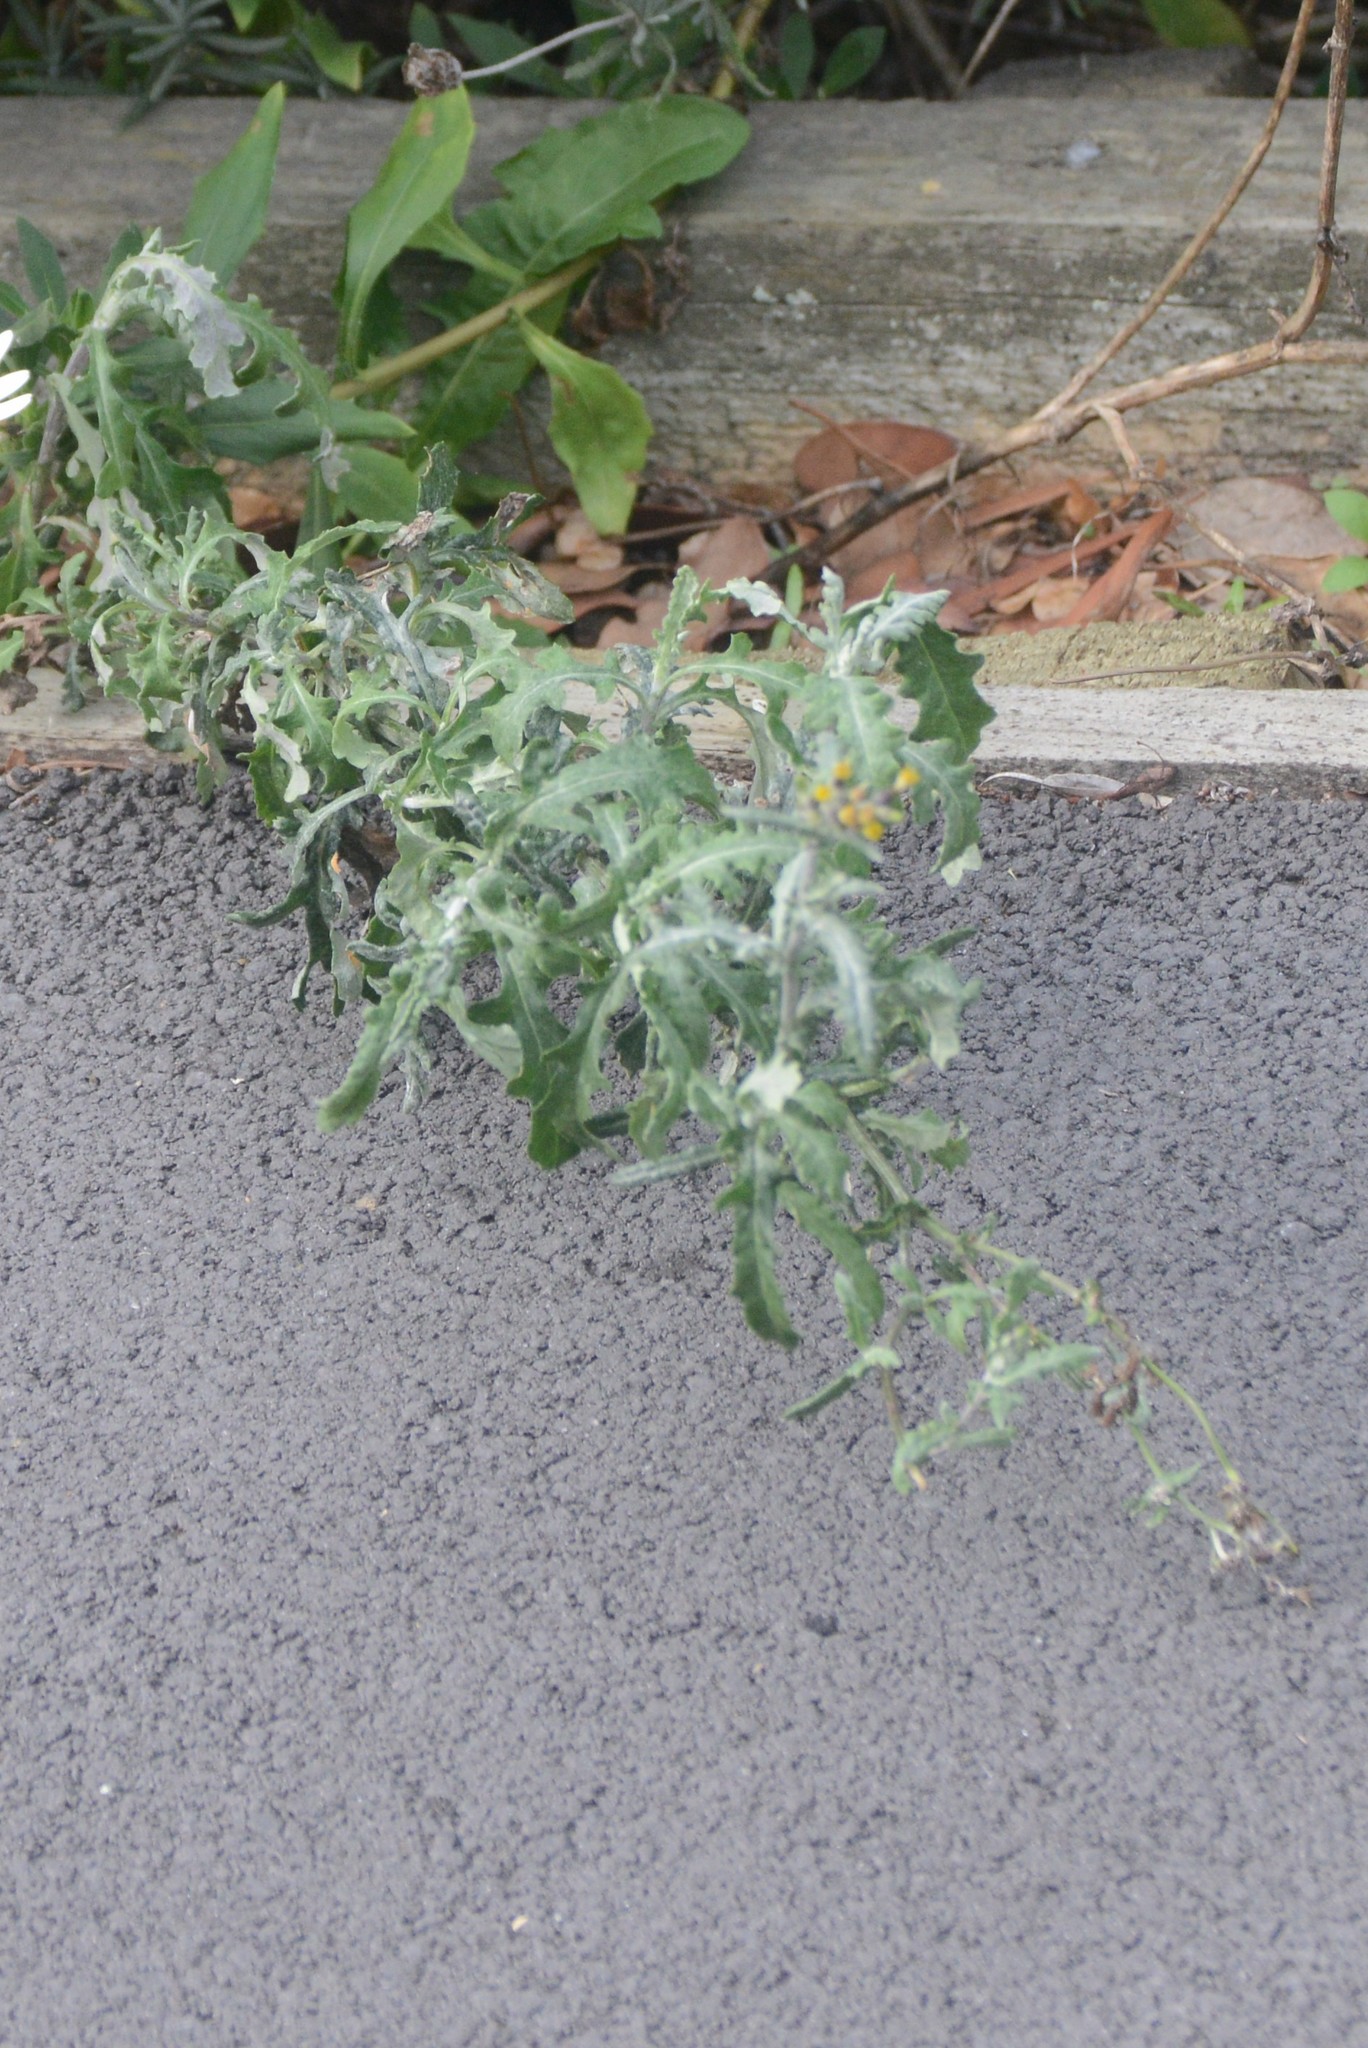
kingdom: Plantae
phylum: Tracheophyta
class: Magnoliopsida
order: Asterales
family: Asteraceae
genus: Senecio
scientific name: Senecio glomeratus
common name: Cutleaf burnweed
